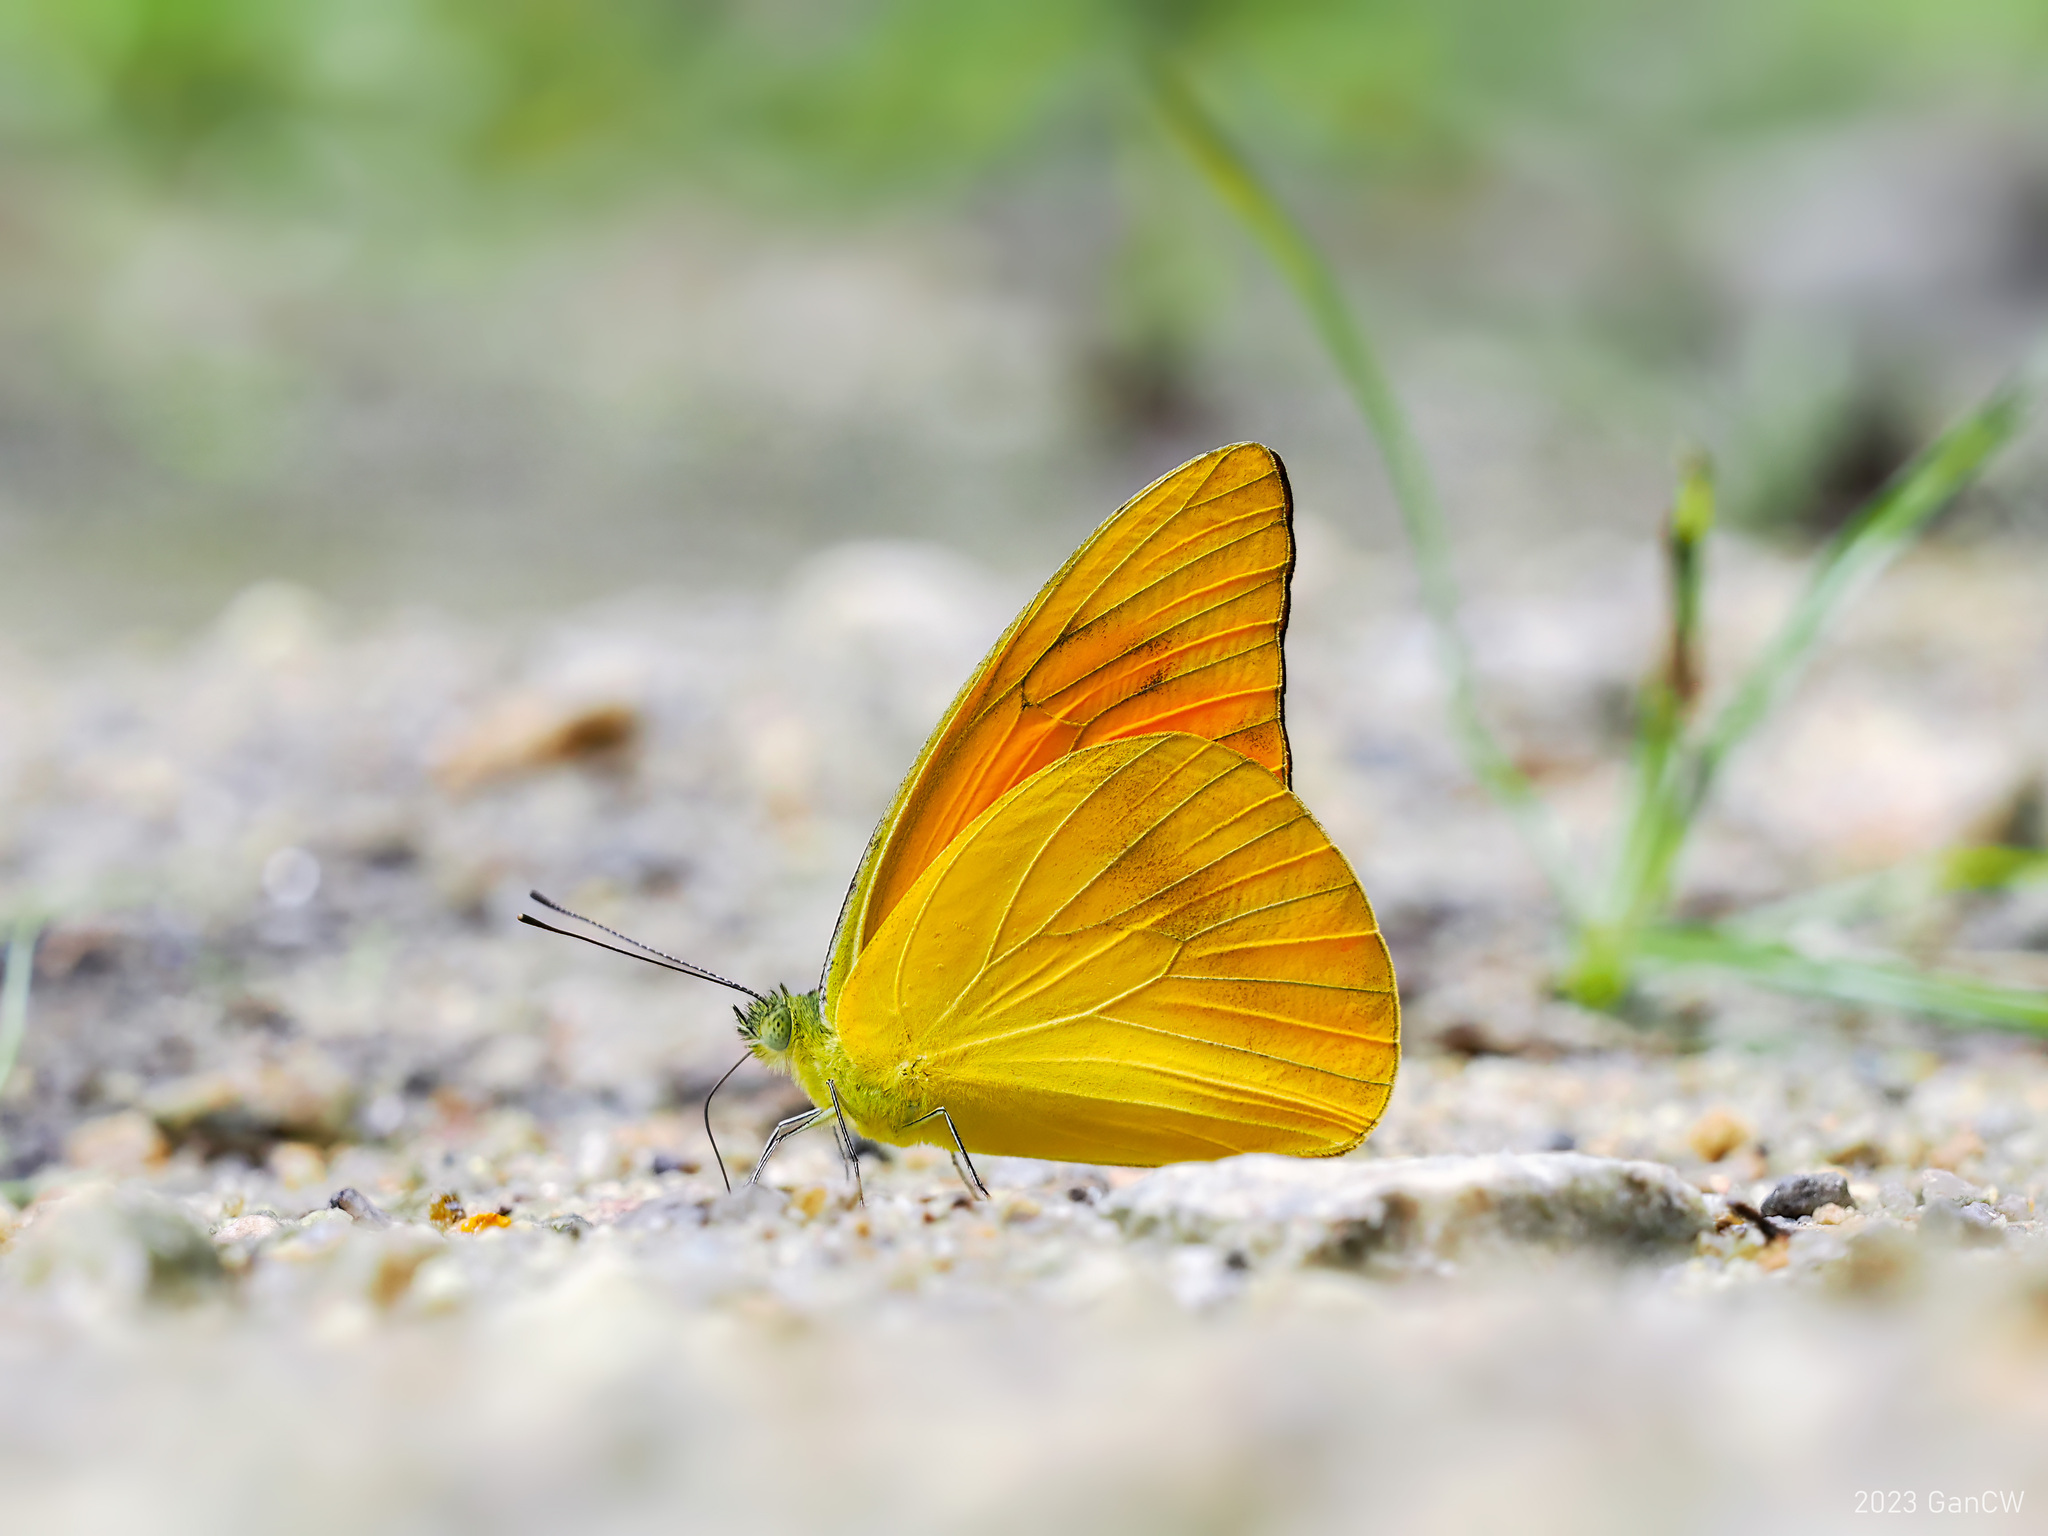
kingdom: Animalia
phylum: Arthropoda
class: Insecta
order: Lepidoptera
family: Pieridae
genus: Appias
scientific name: Appias nero
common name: Orange albatross
